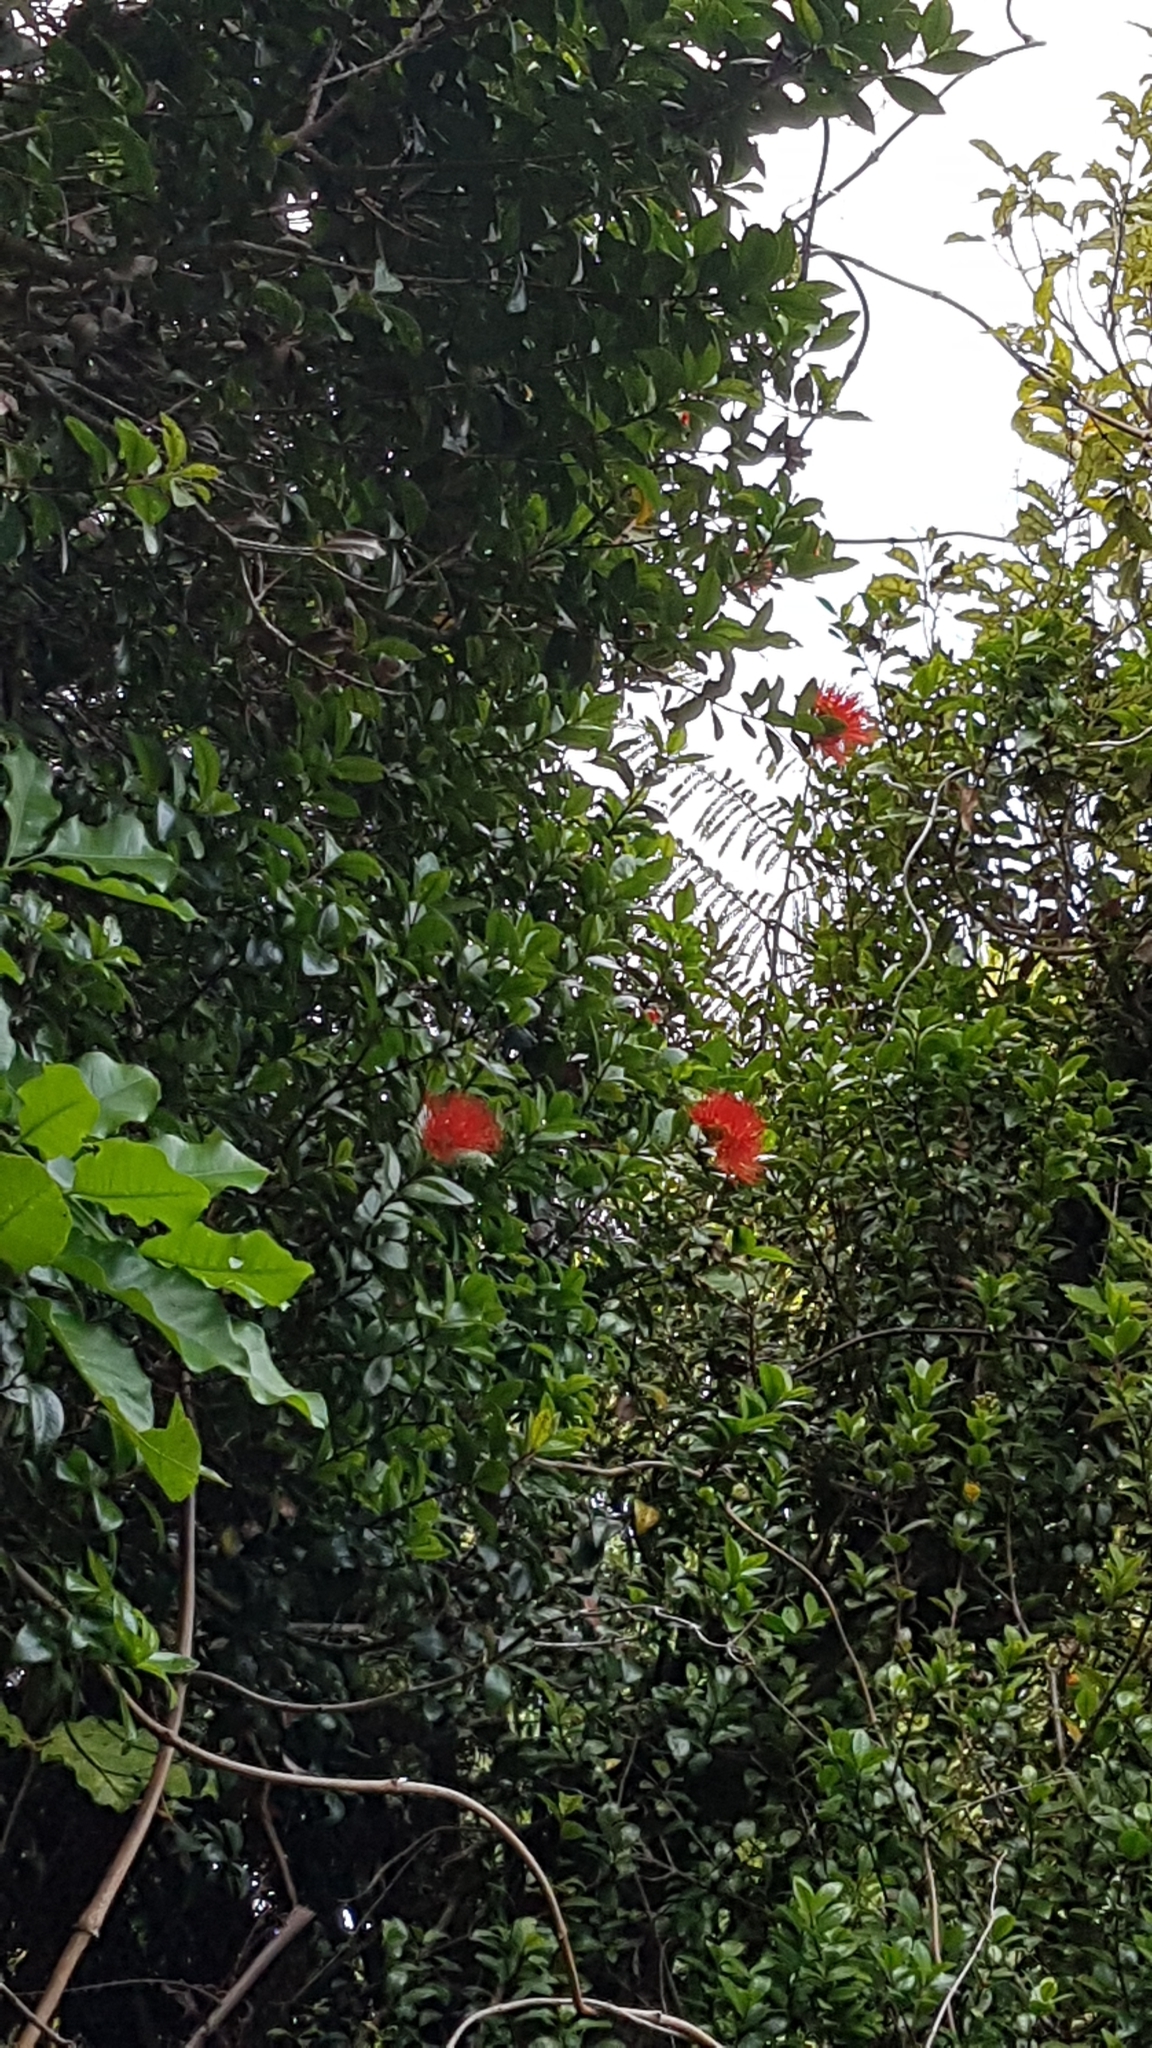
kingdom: Plantae
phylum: Tracheophyta
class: Magnoliopsida
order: Myrtales
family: Myrtaceae
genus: Metrosideros
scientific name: Metrosideros fulgens
